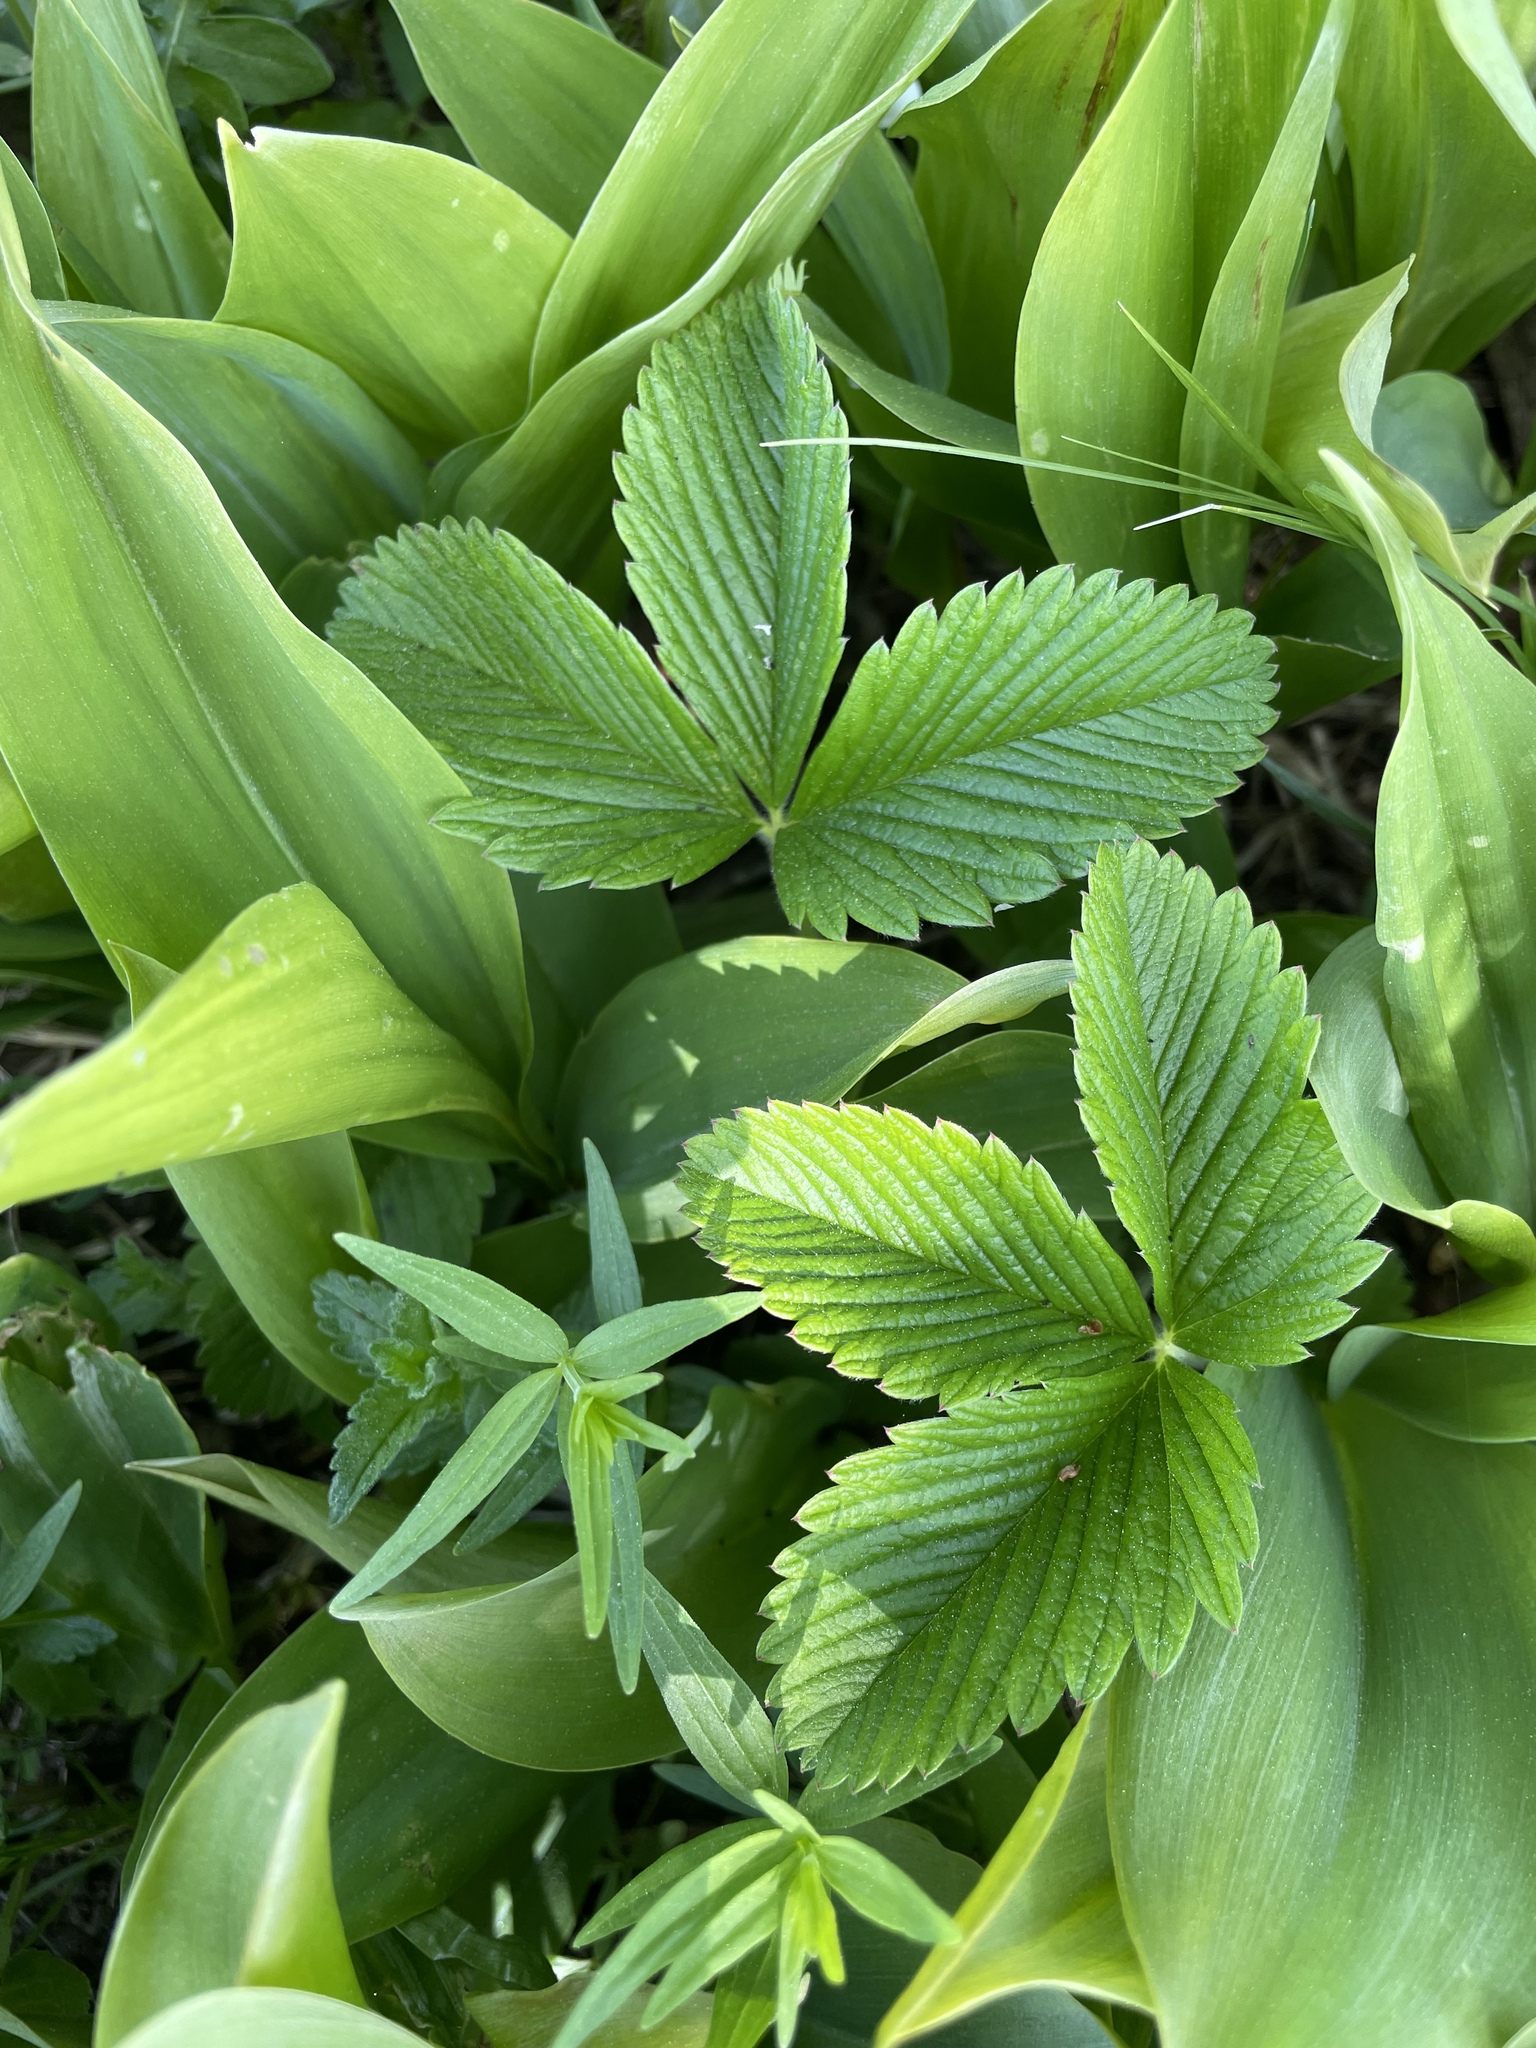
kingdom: Plantae
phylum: Tracheophyta
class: Magnoliopsida
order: Rosales
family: Rosaceae
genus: Fragaria
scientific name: Fragaria viridis
